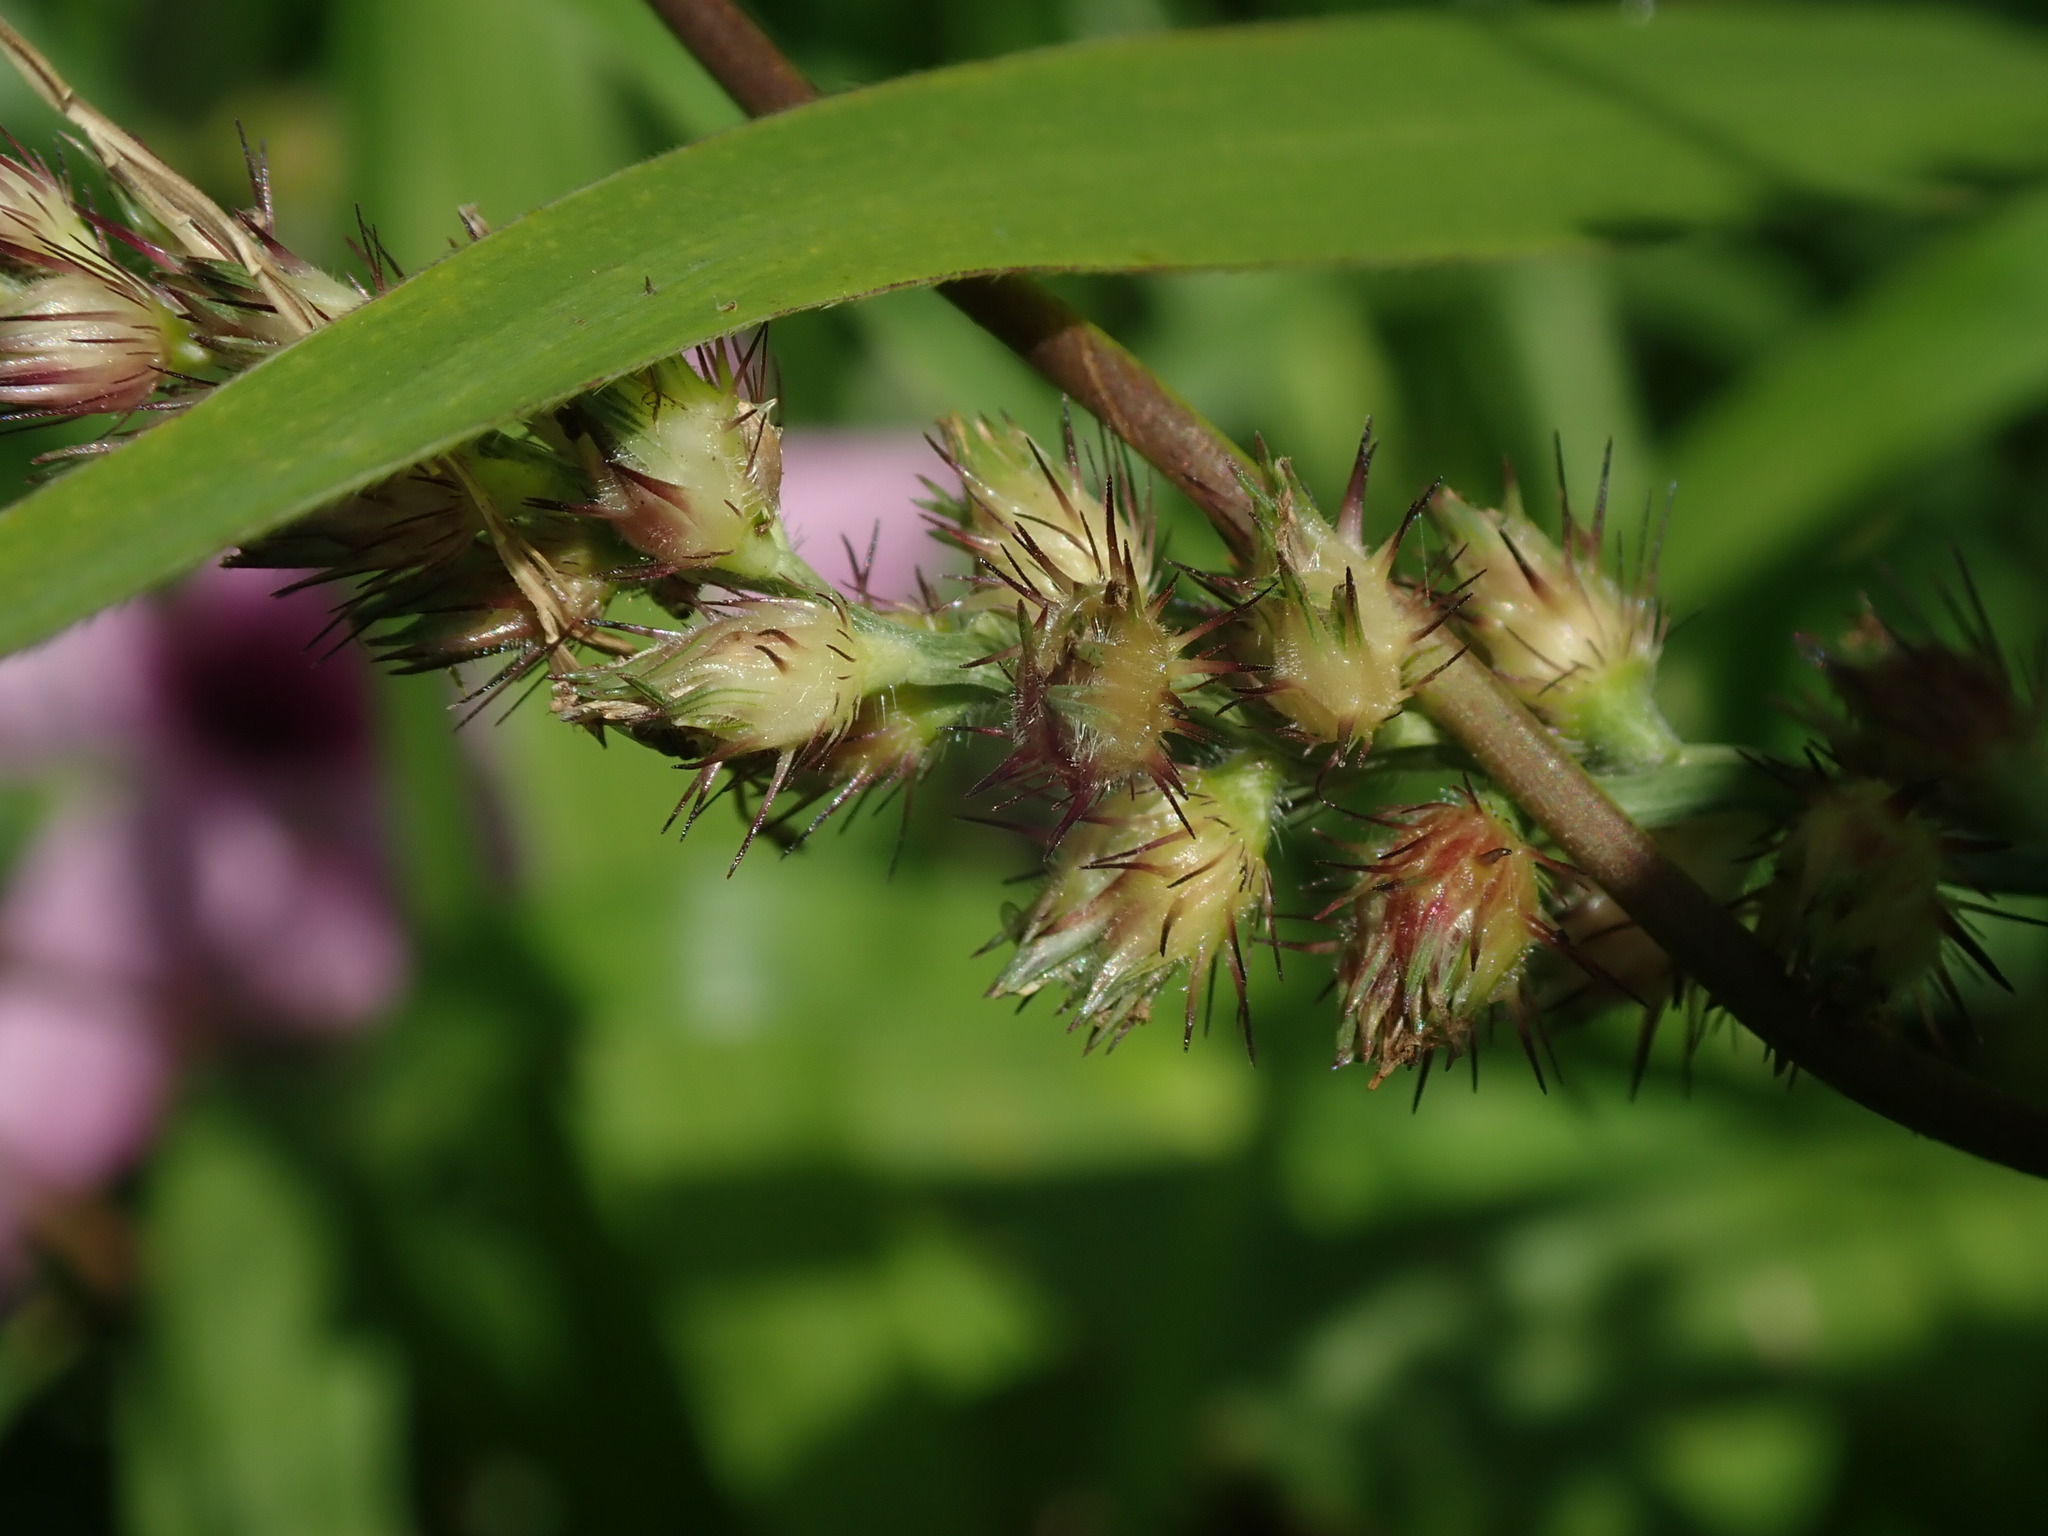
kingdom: Plantae
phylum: Tracheophyta
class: Liliopsida
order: Poales
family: Poaceae
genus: Cenchrus
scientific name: Cenchrus echinatus
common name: Southern sandbur
